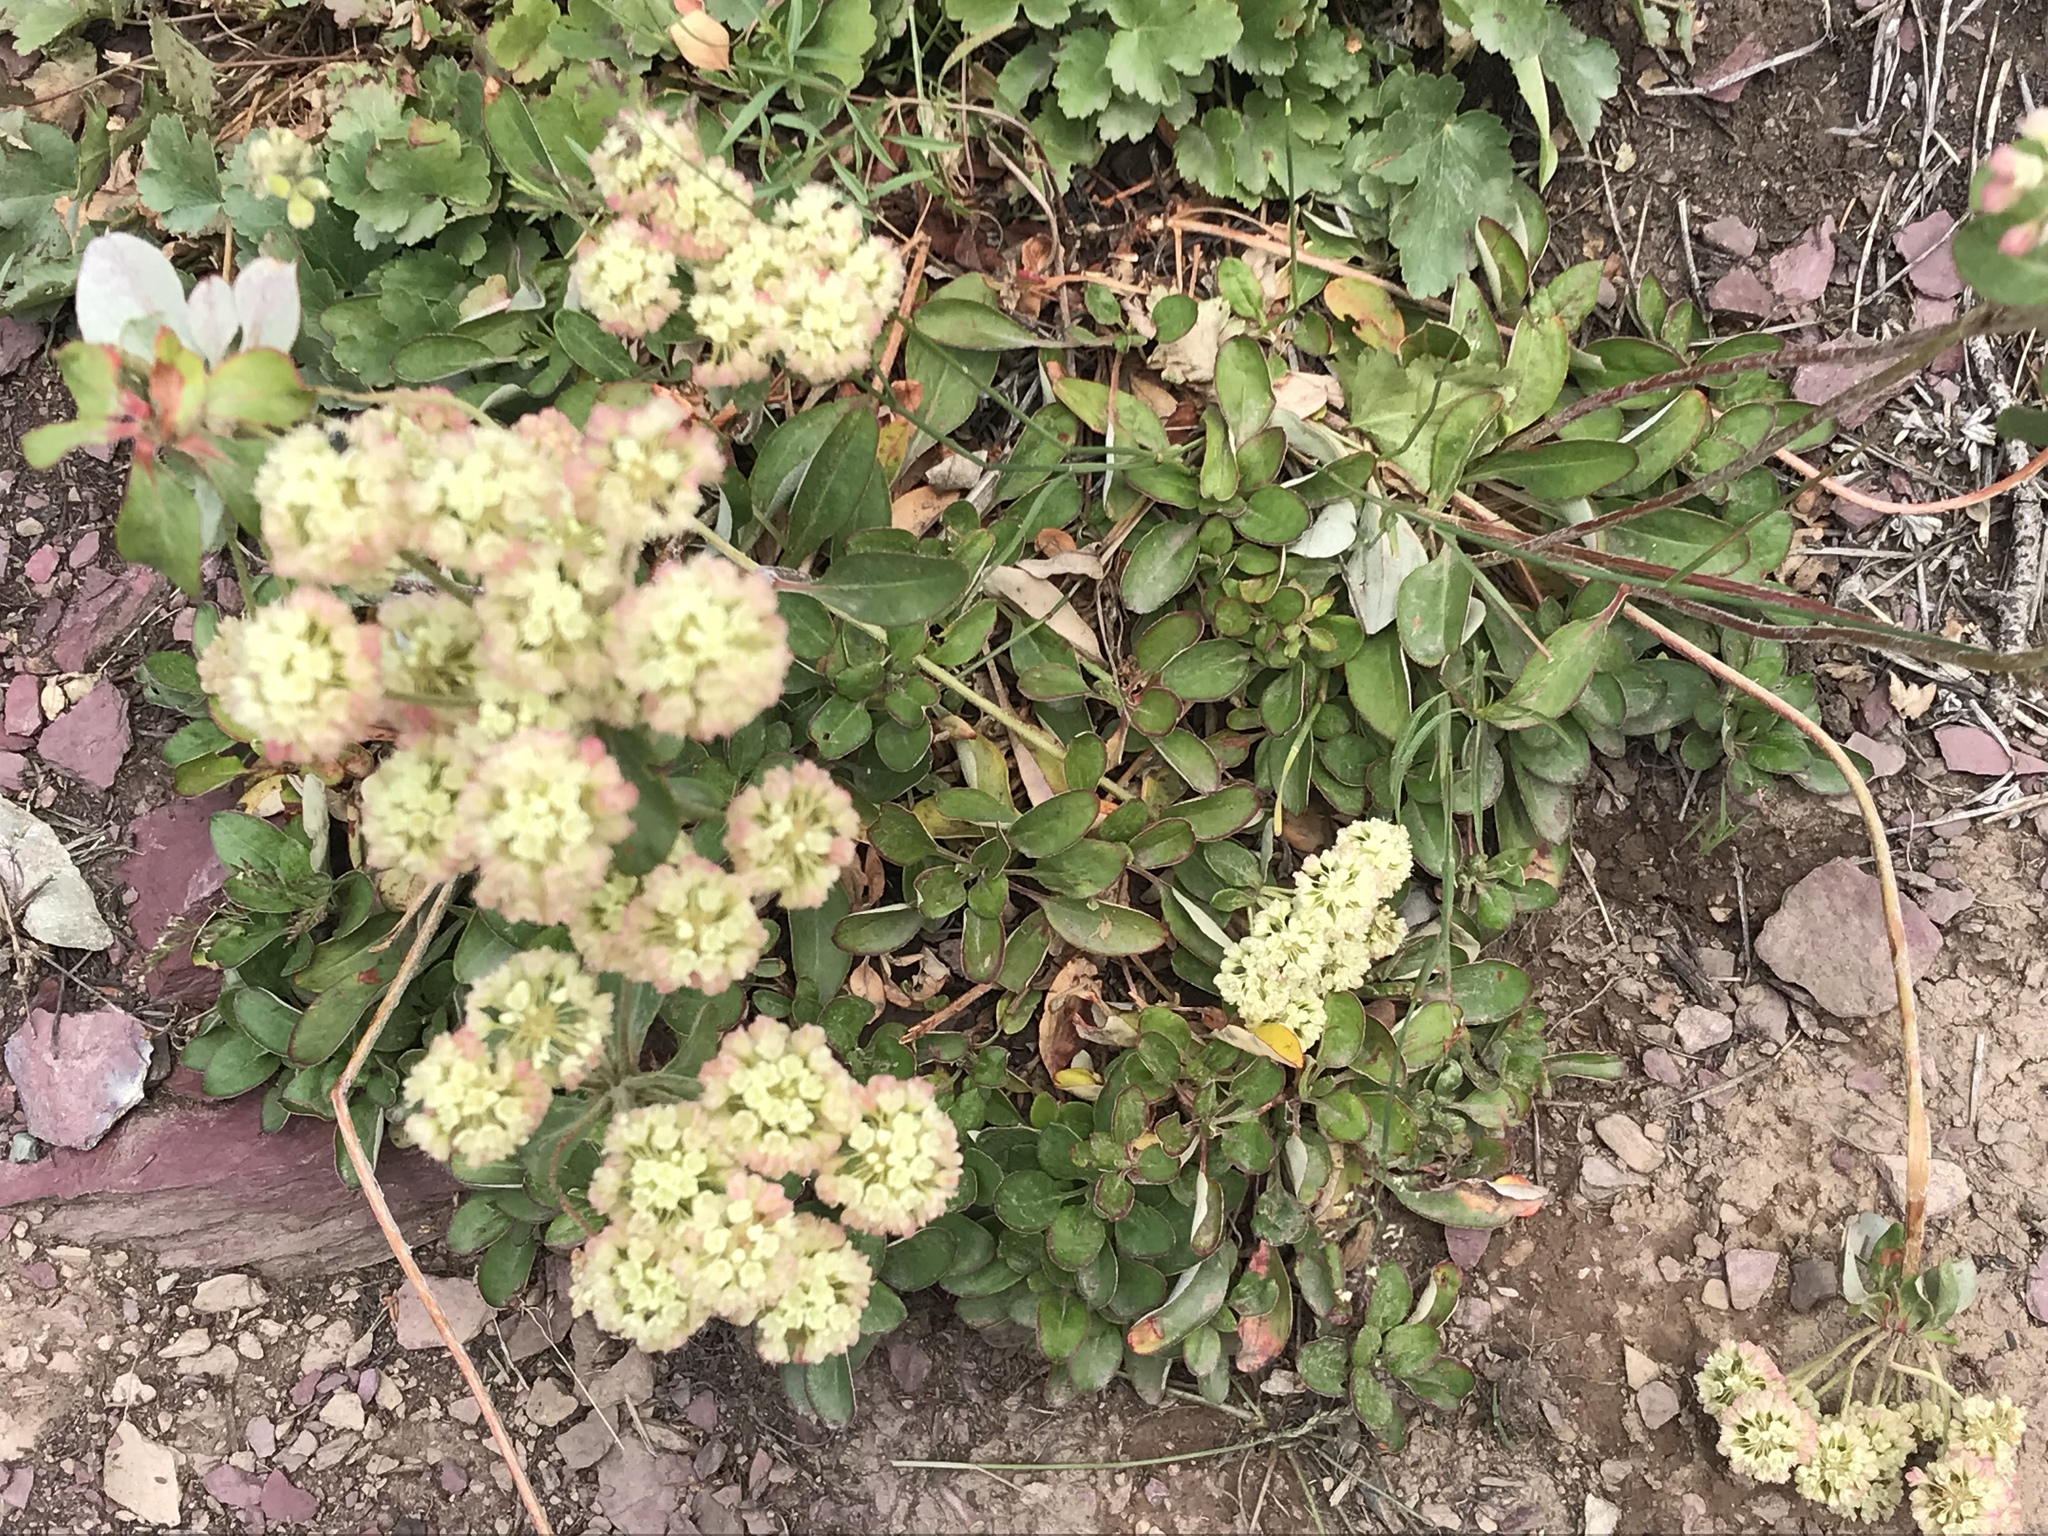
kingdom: Plantae
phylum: Tracheophyta
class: Magnoliopsida
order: Caryophyllales
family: Polygonaceae
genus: Eriogonum
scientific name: Eriogonum umbellatum
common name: Sulfur-buckwheat
